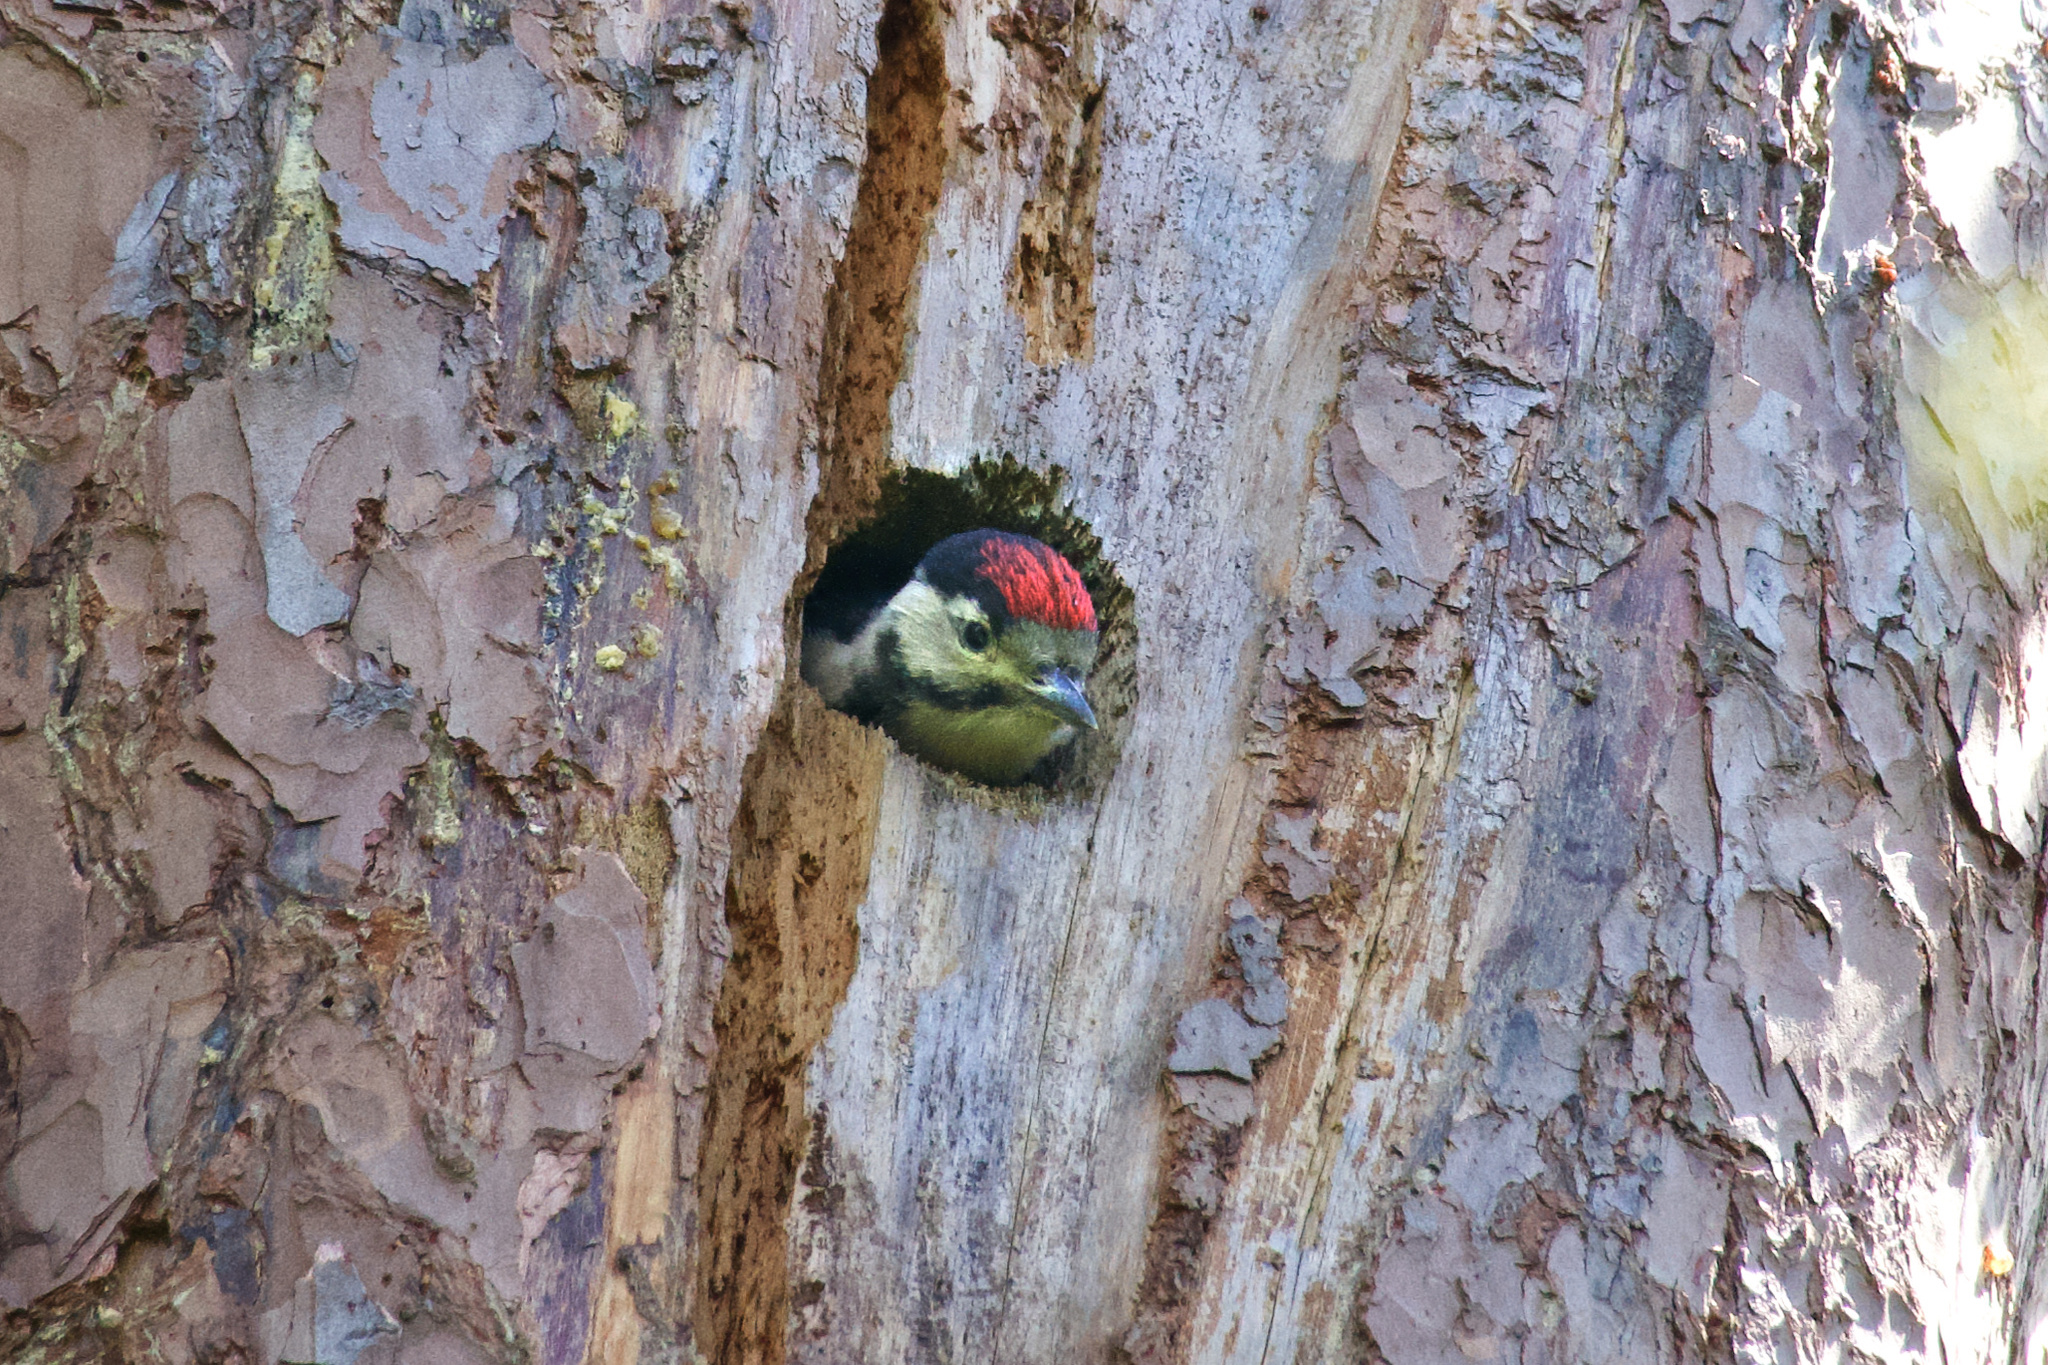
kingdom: Animalia
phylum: Chordata
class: Aves
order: Piciformes
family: Picidae
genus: Dendrocopos
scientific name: Dendrocopos major
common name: Great spotted woodpecker
